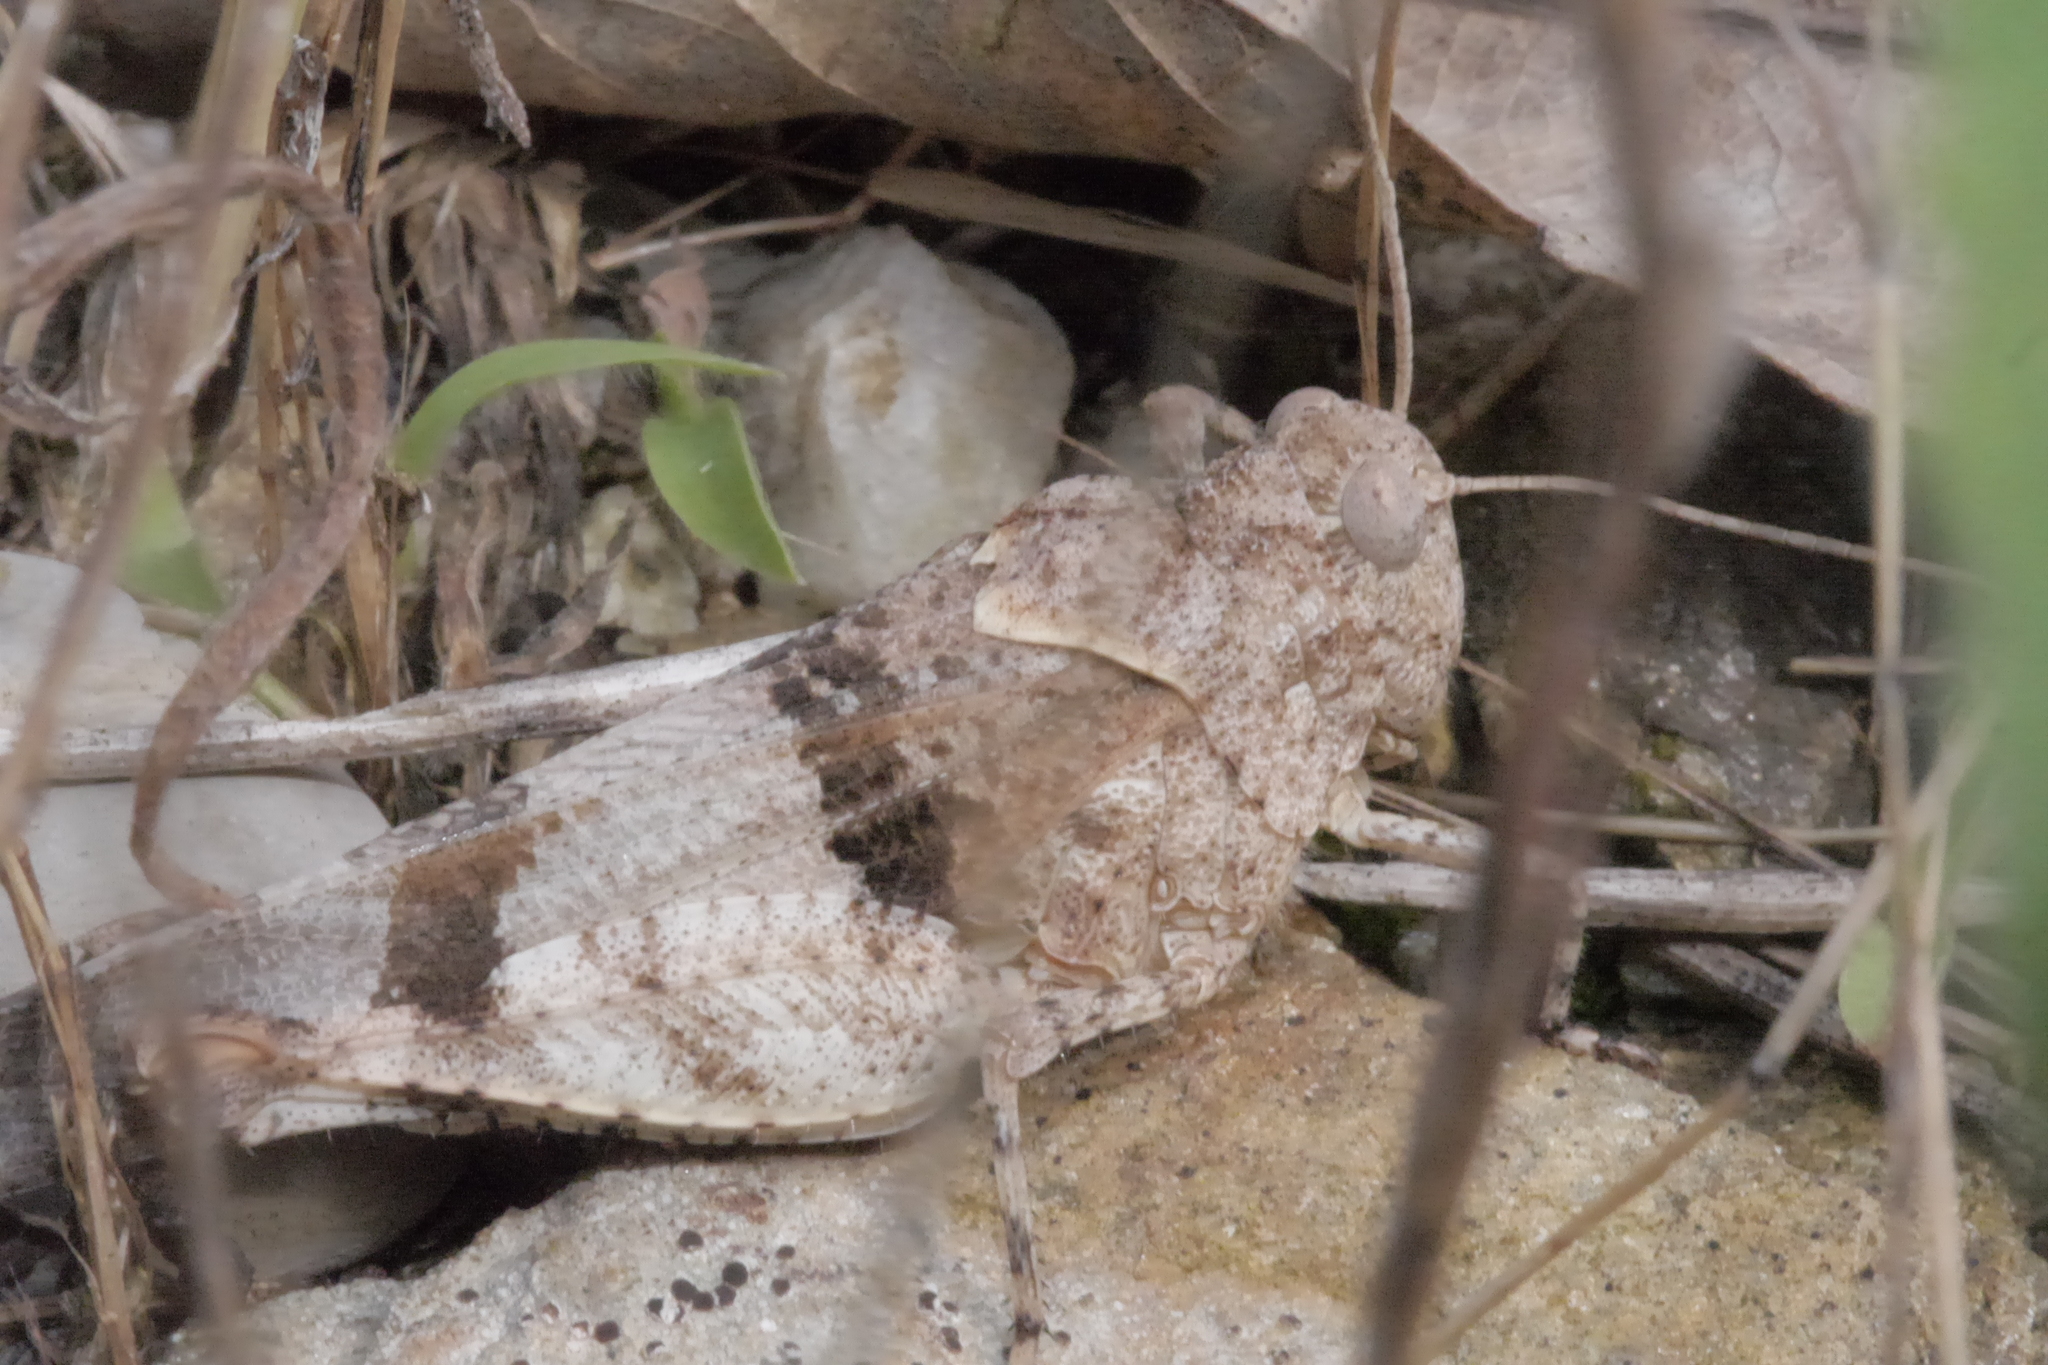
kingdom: Animalia
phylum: Arthropoda
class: Insecta
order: Orthoptera
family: Acrididae
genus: Oedipoda
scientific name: Oedipoda caerulescens
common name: Blue-winged grasshopper
